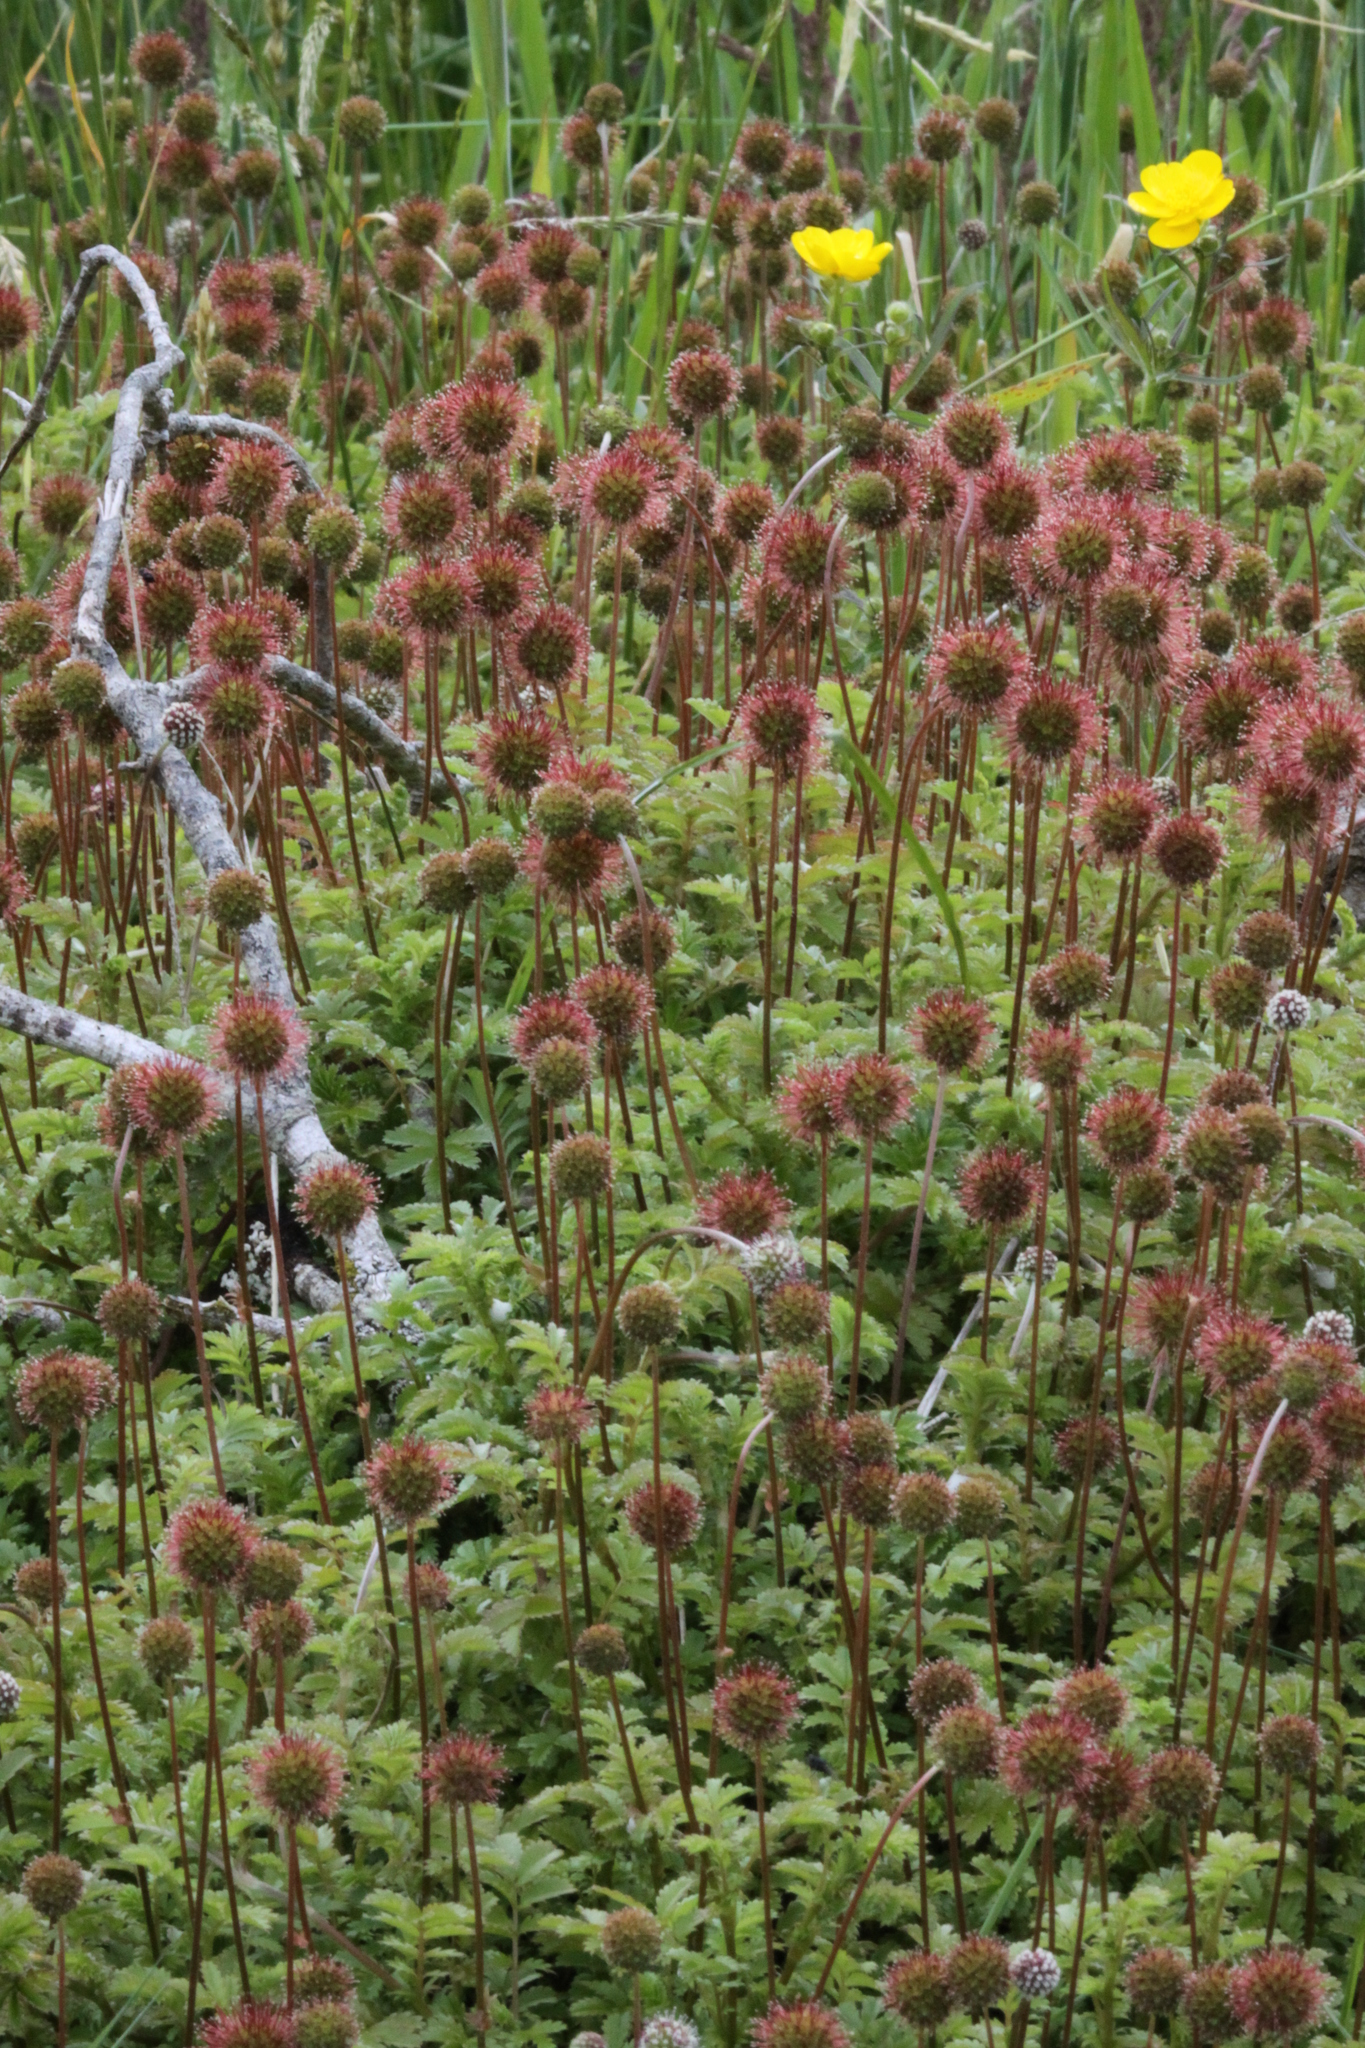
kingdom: Plantae
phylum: Tracheophyta
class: Magnoliopsida
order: Rosales
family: Rosaceae
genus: Acaena
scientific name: Acaena anserinifolia
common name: Bronze pirri-pirri-bur
